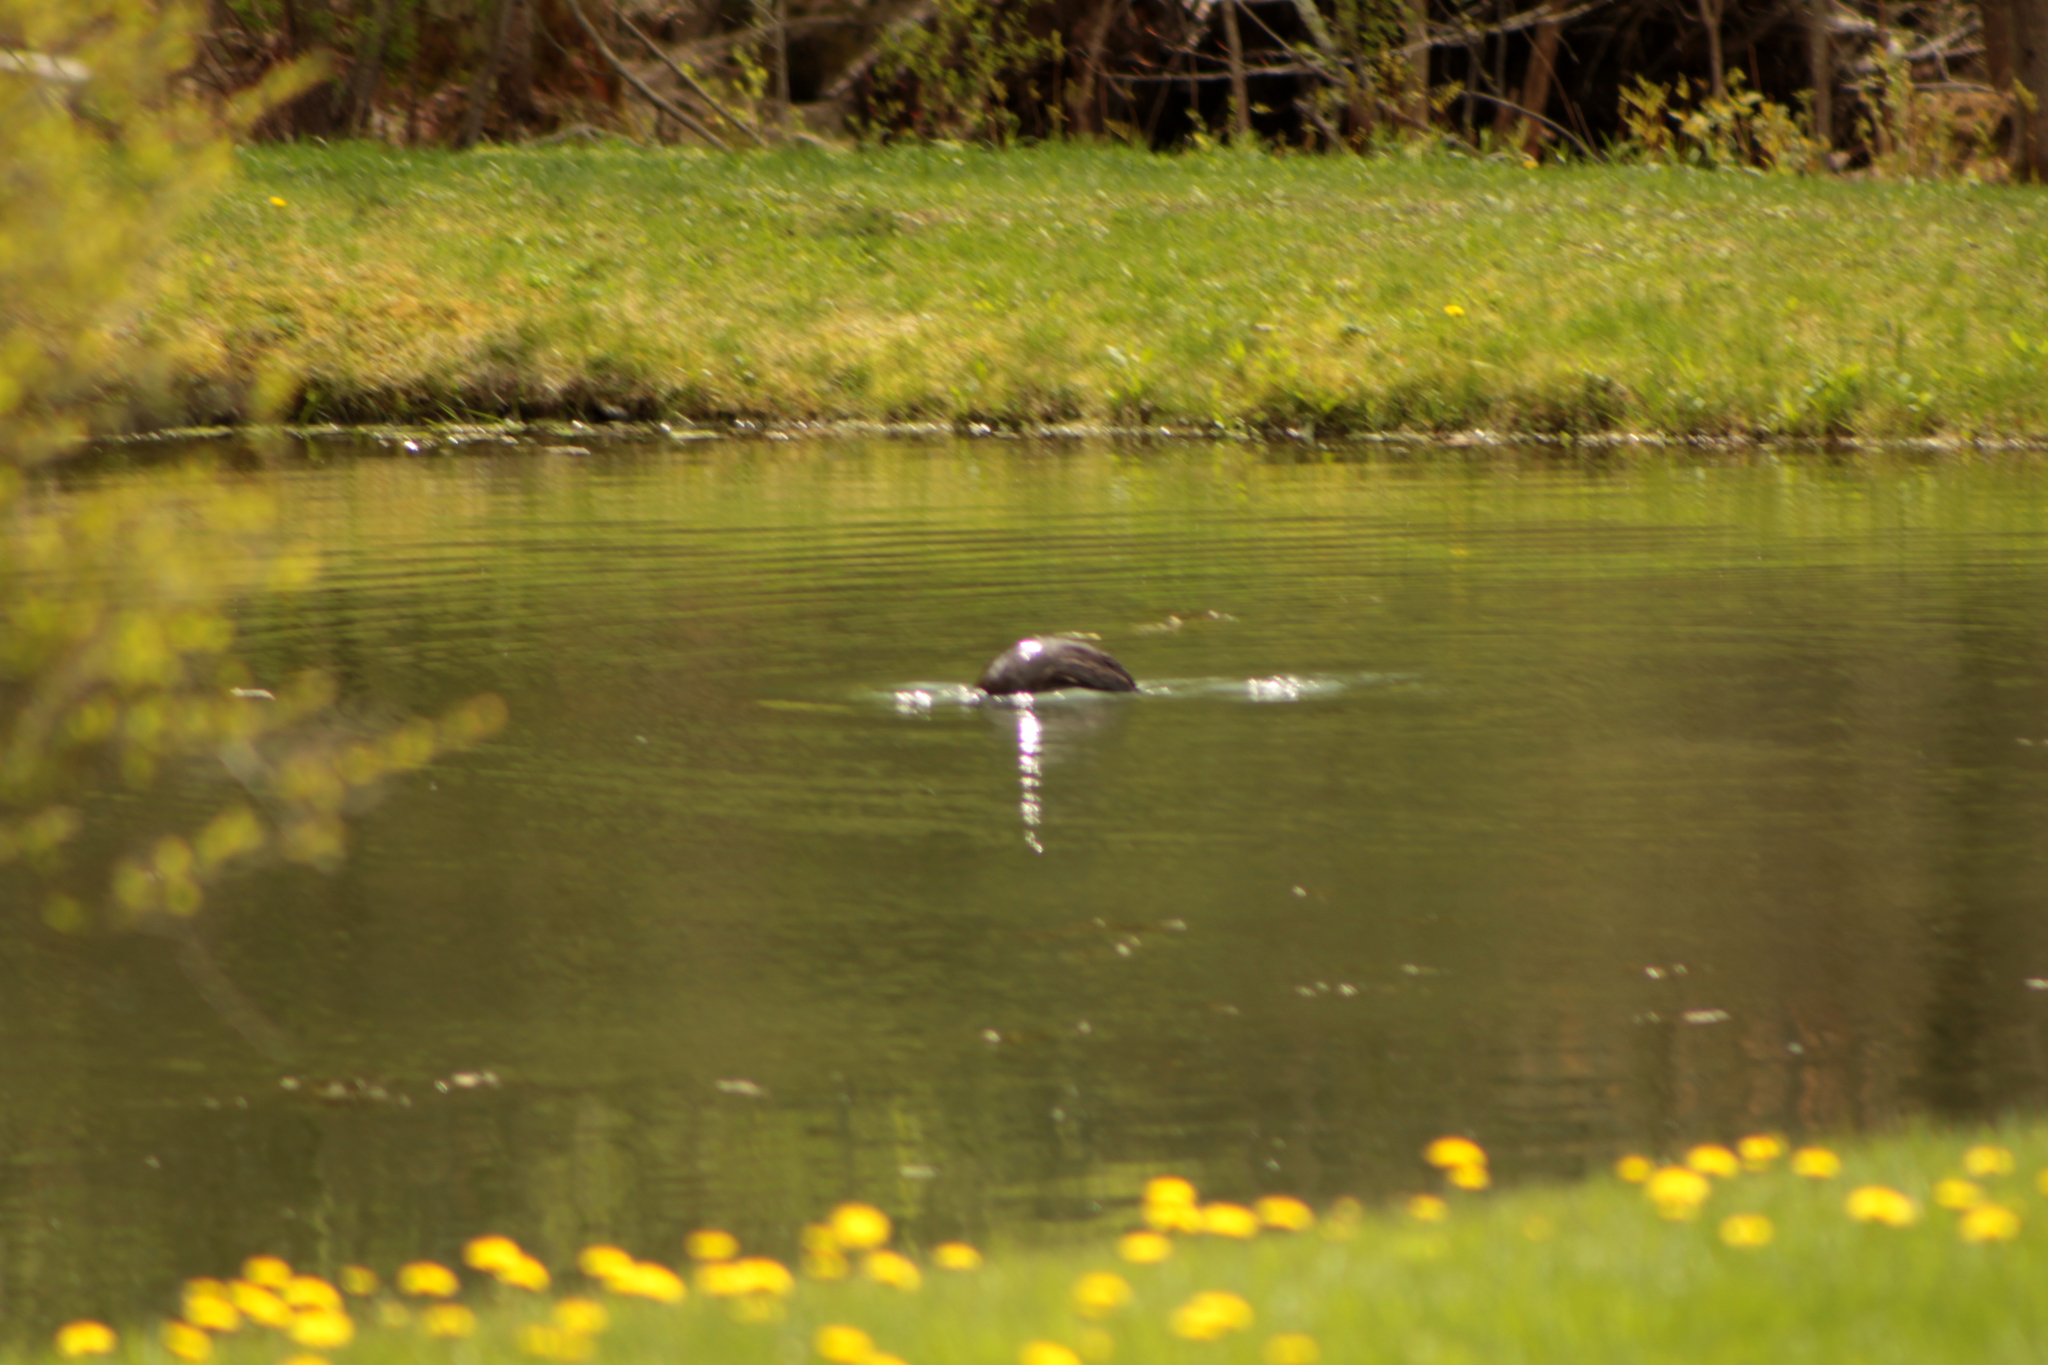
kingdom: Animalia
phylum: Chordata
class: Mammalia
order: Carnivora
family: Mustelidae
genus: Lontra
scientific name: Lontra canadensis
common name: North american river otter
